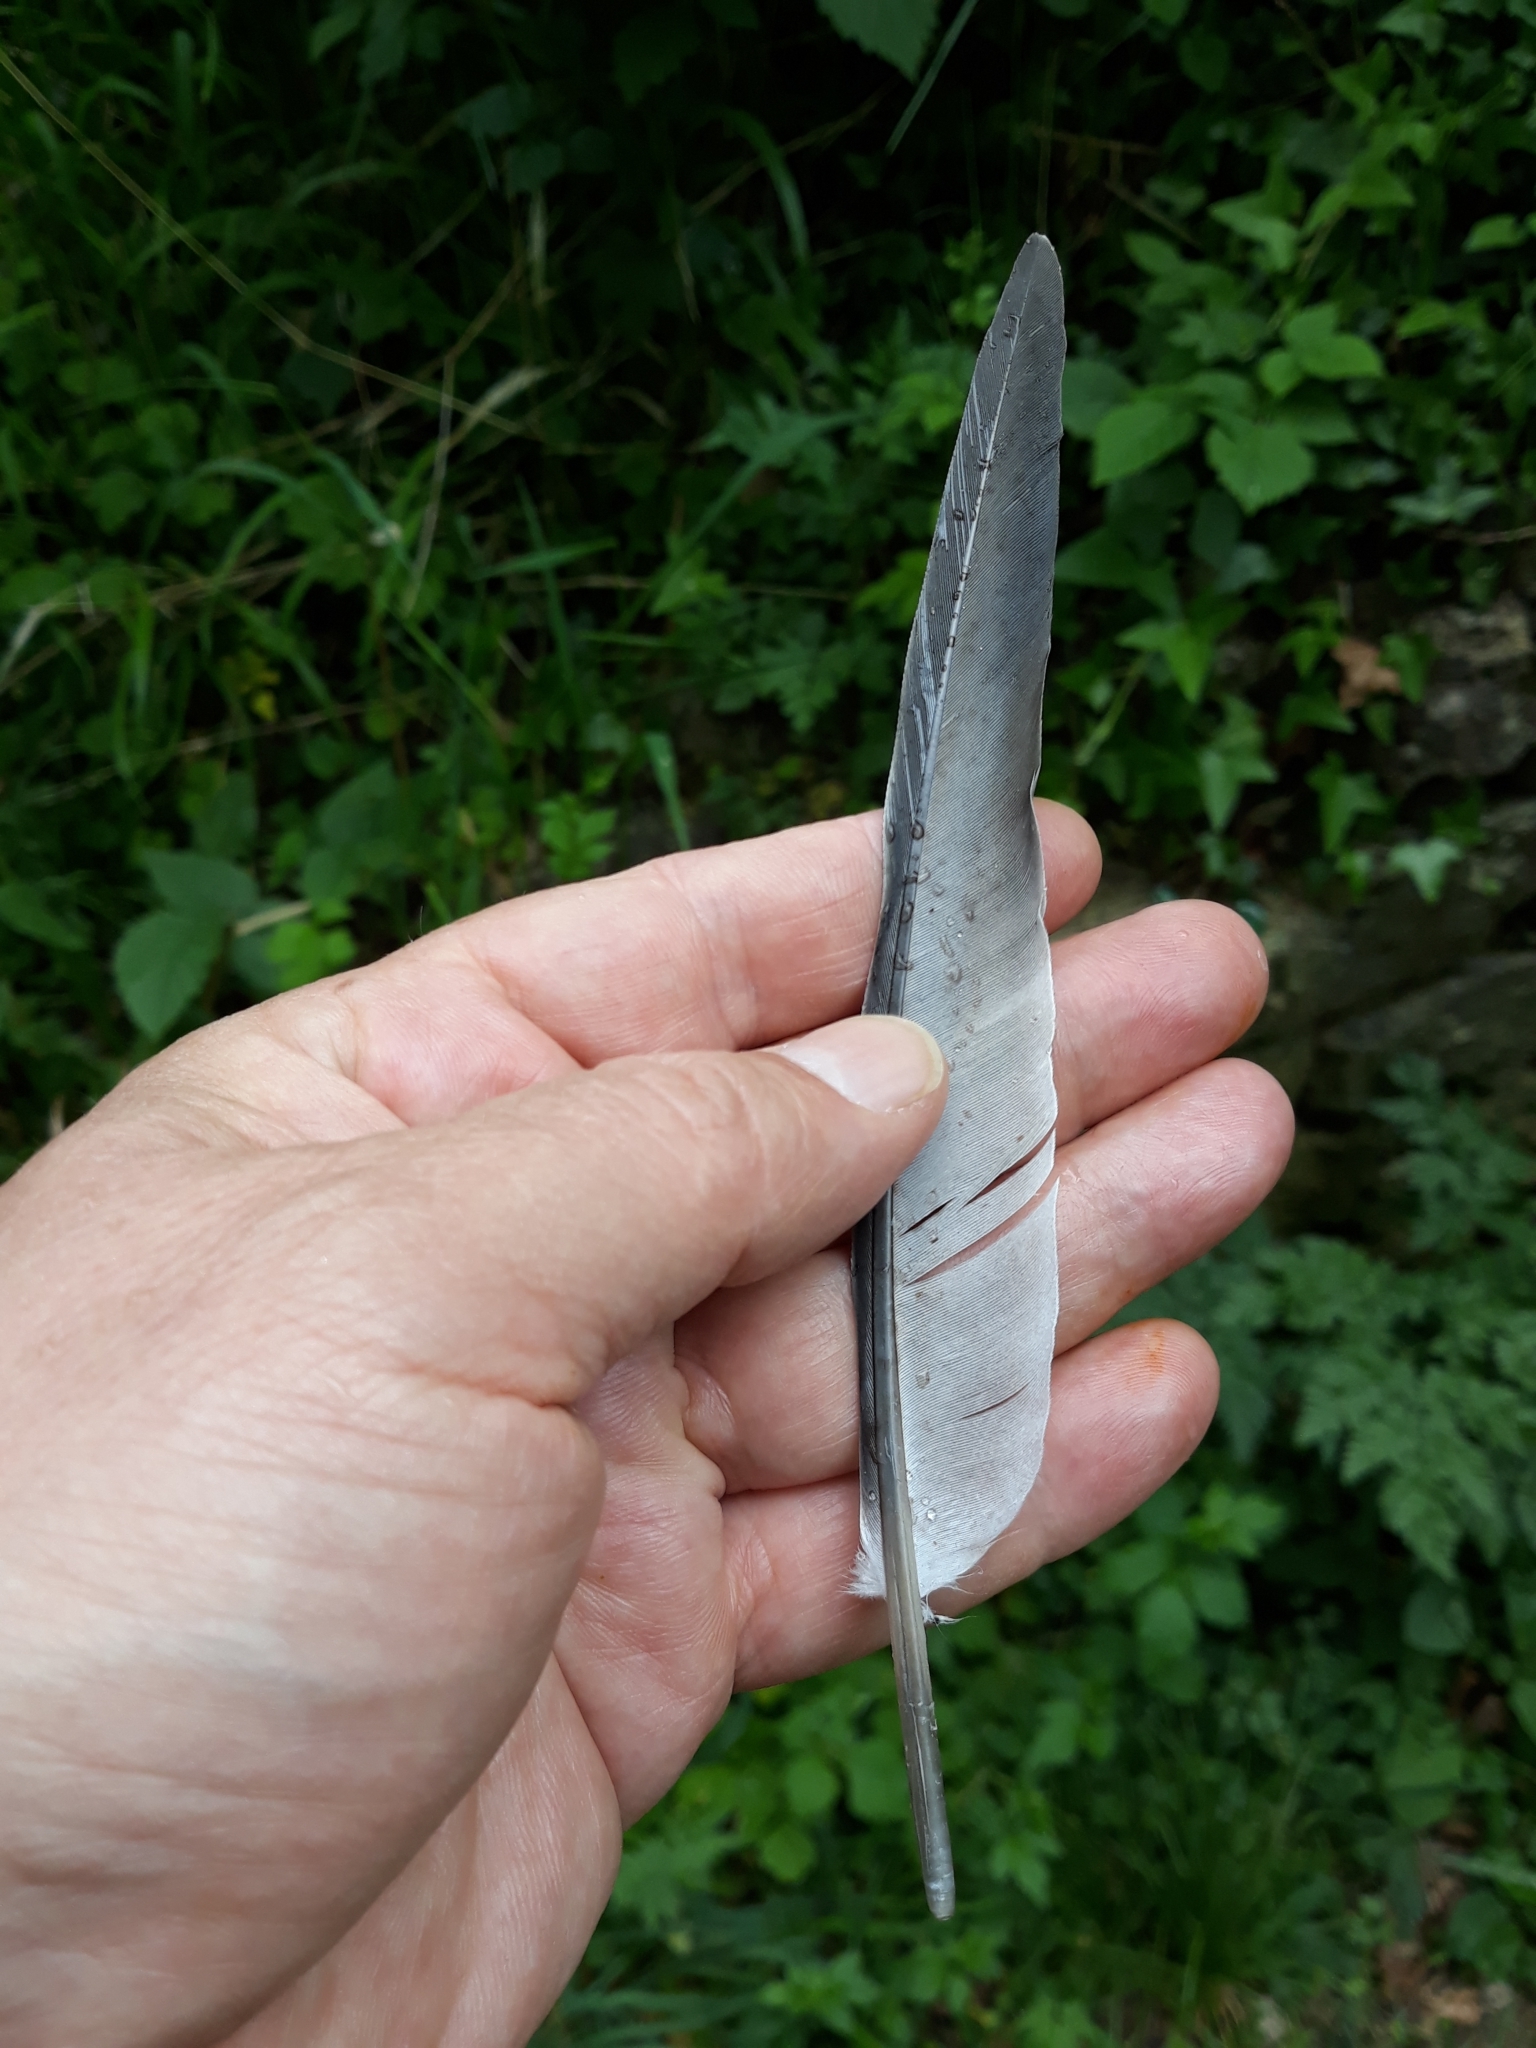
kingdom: Animalia
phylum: Chordata
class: Aves
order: Columbiformes
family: Columbidae
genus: Columba
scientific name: Columba livia
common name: Rock pigeon
